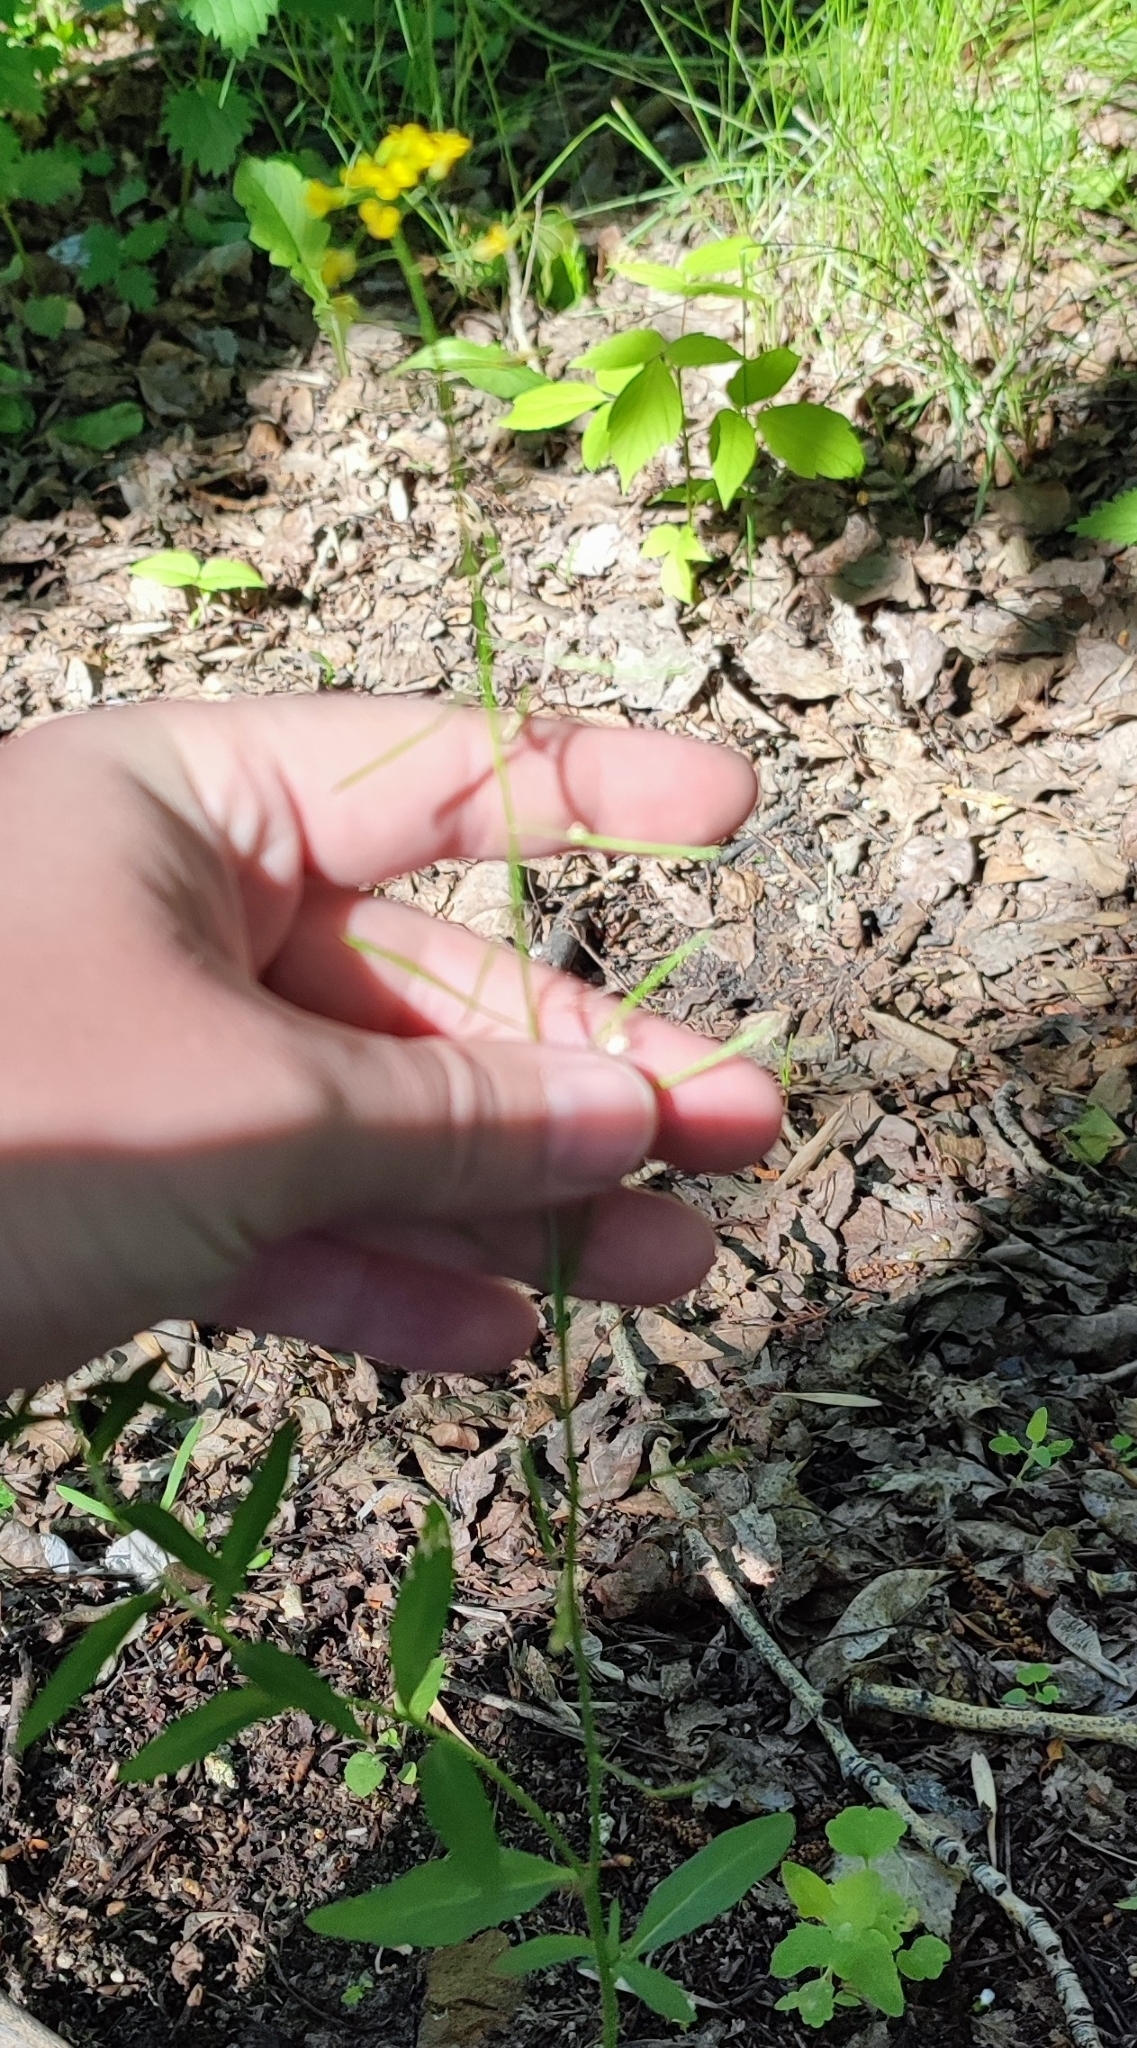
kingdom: Plantae
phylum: Tracheophyta
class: Magnoliopsida
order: Brassicales
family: Brassicaceae
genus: Erysimum
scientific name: Erysimum cheiranthoides
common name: Treacle mustard
